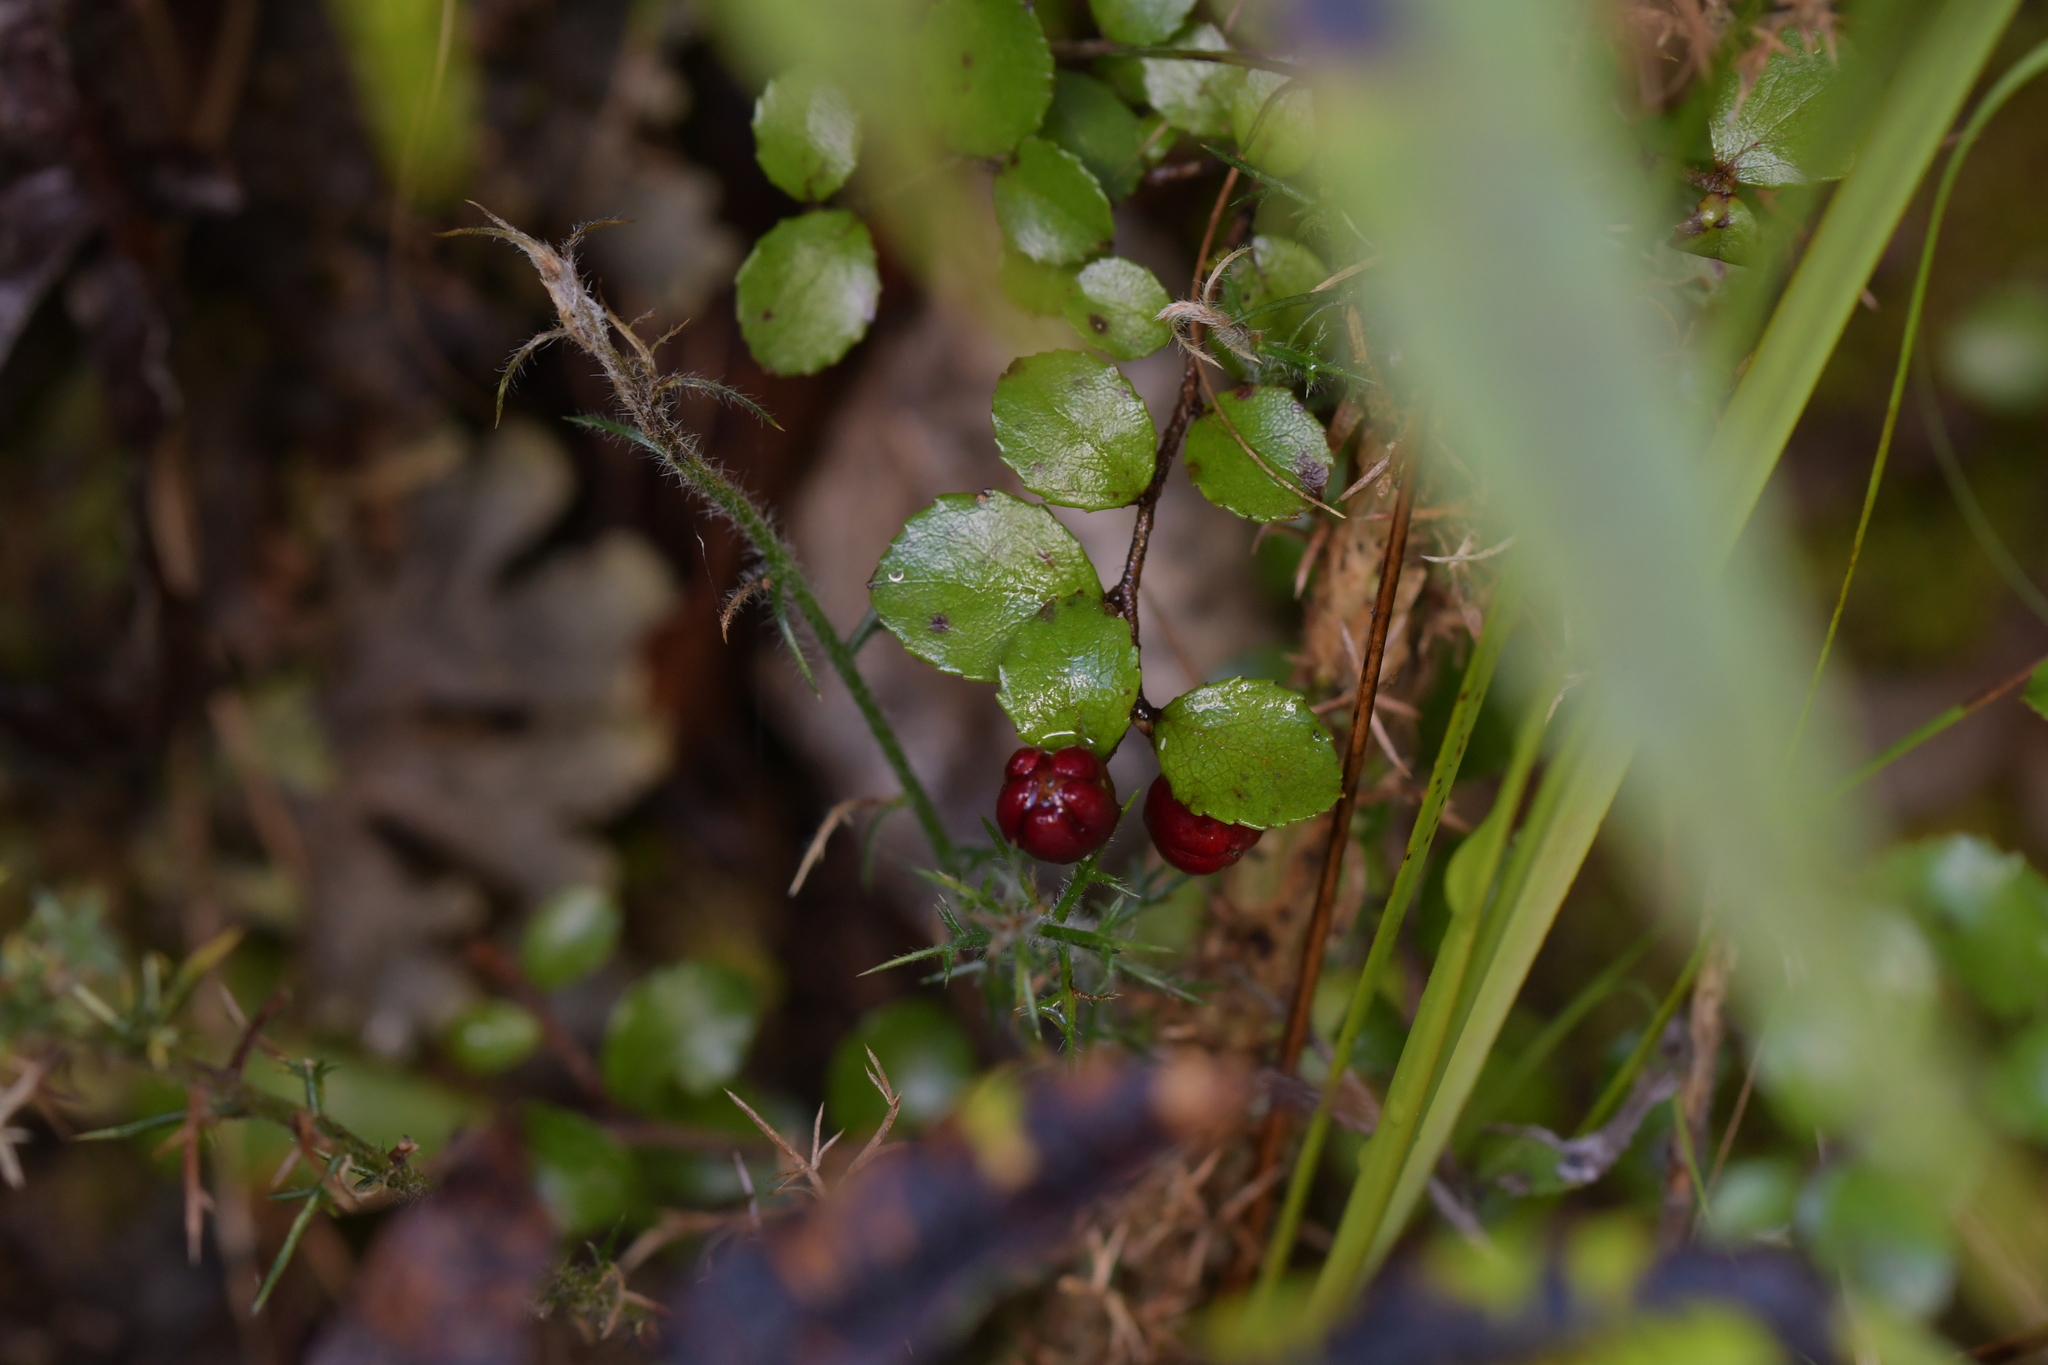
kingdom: Plantae
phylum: Tracheophyta
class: Magnoliopsida
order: Ericales
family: Ericaceae
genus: Gaultheria
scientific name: Gaultheria antipoda
